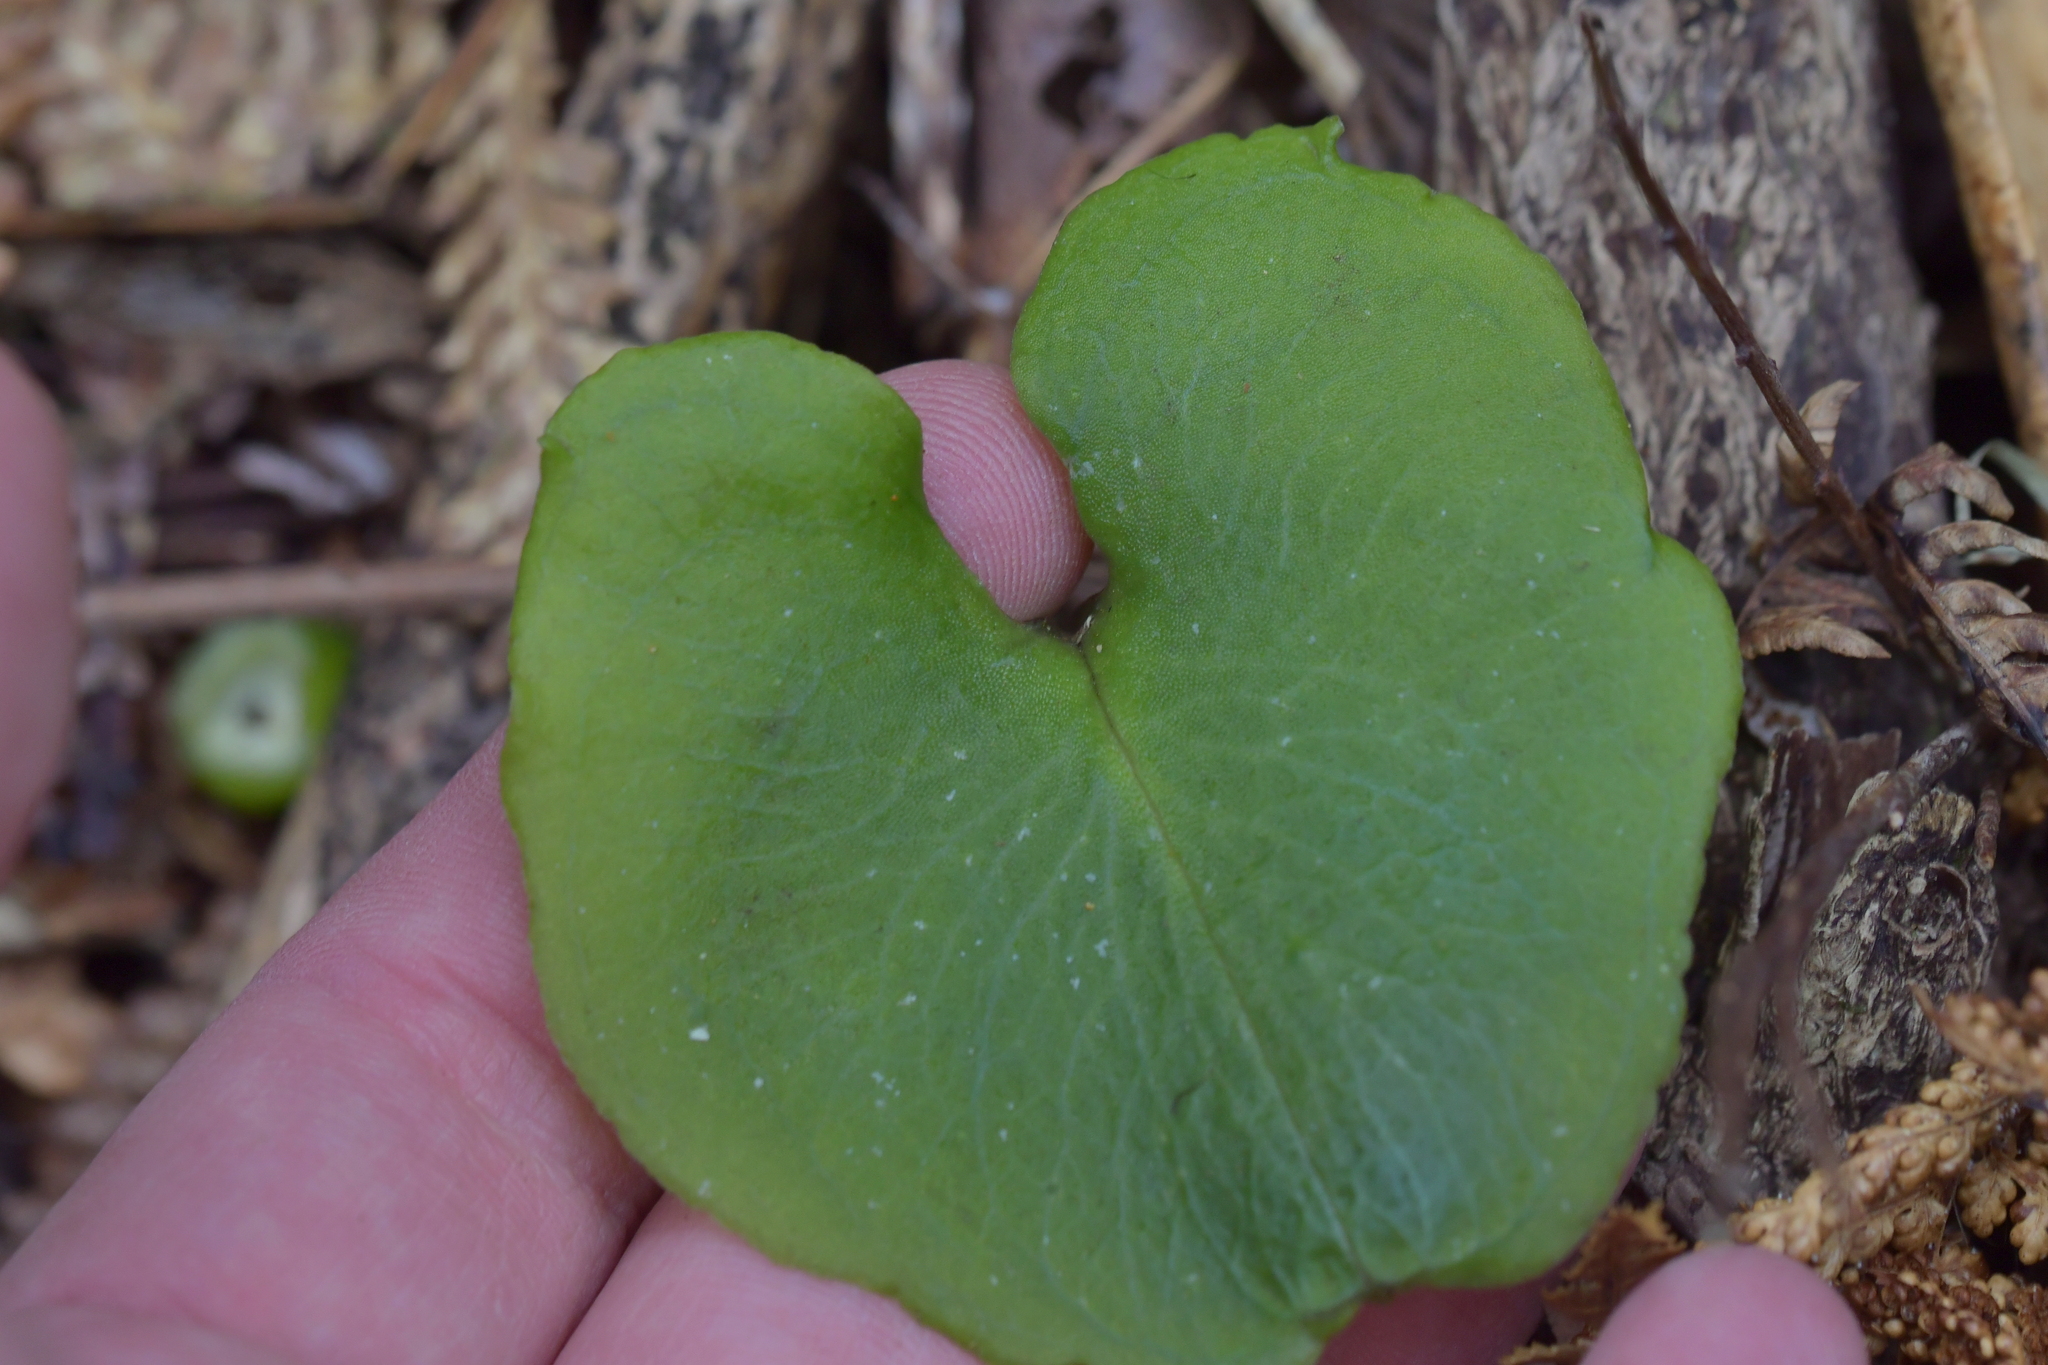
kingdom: Plantae
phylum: Tracheophyta
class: Liliopsida
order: Asparagales
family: Orchidaceae
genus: Corybas
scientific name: Corybas sulcatus
